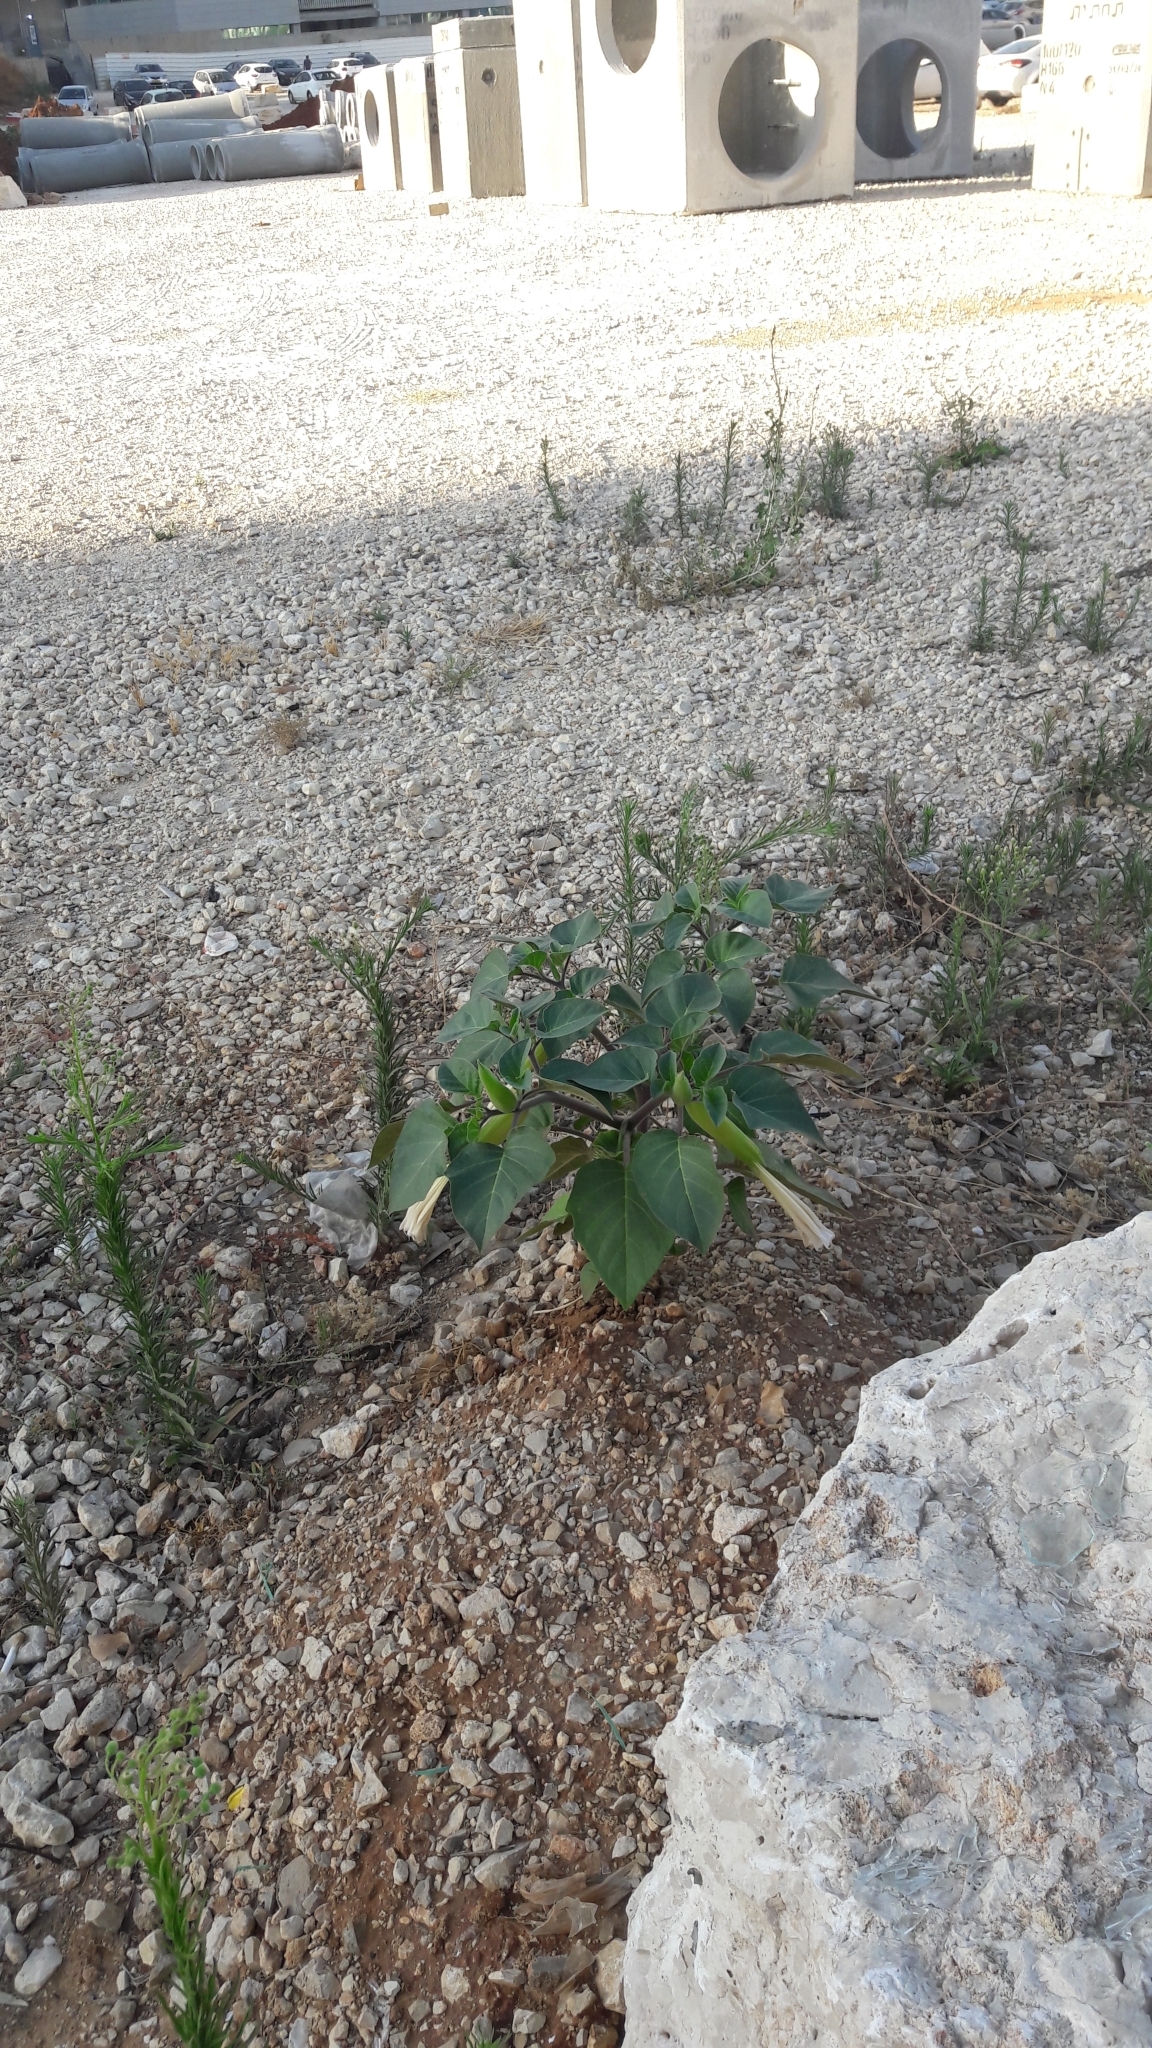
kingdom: Plantae
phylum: Tracheophyta
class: Magnoliopsida
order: Solanales
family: Solanaceae
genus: Datura
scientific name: Datura innoxia
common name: Downy thorn-apple
